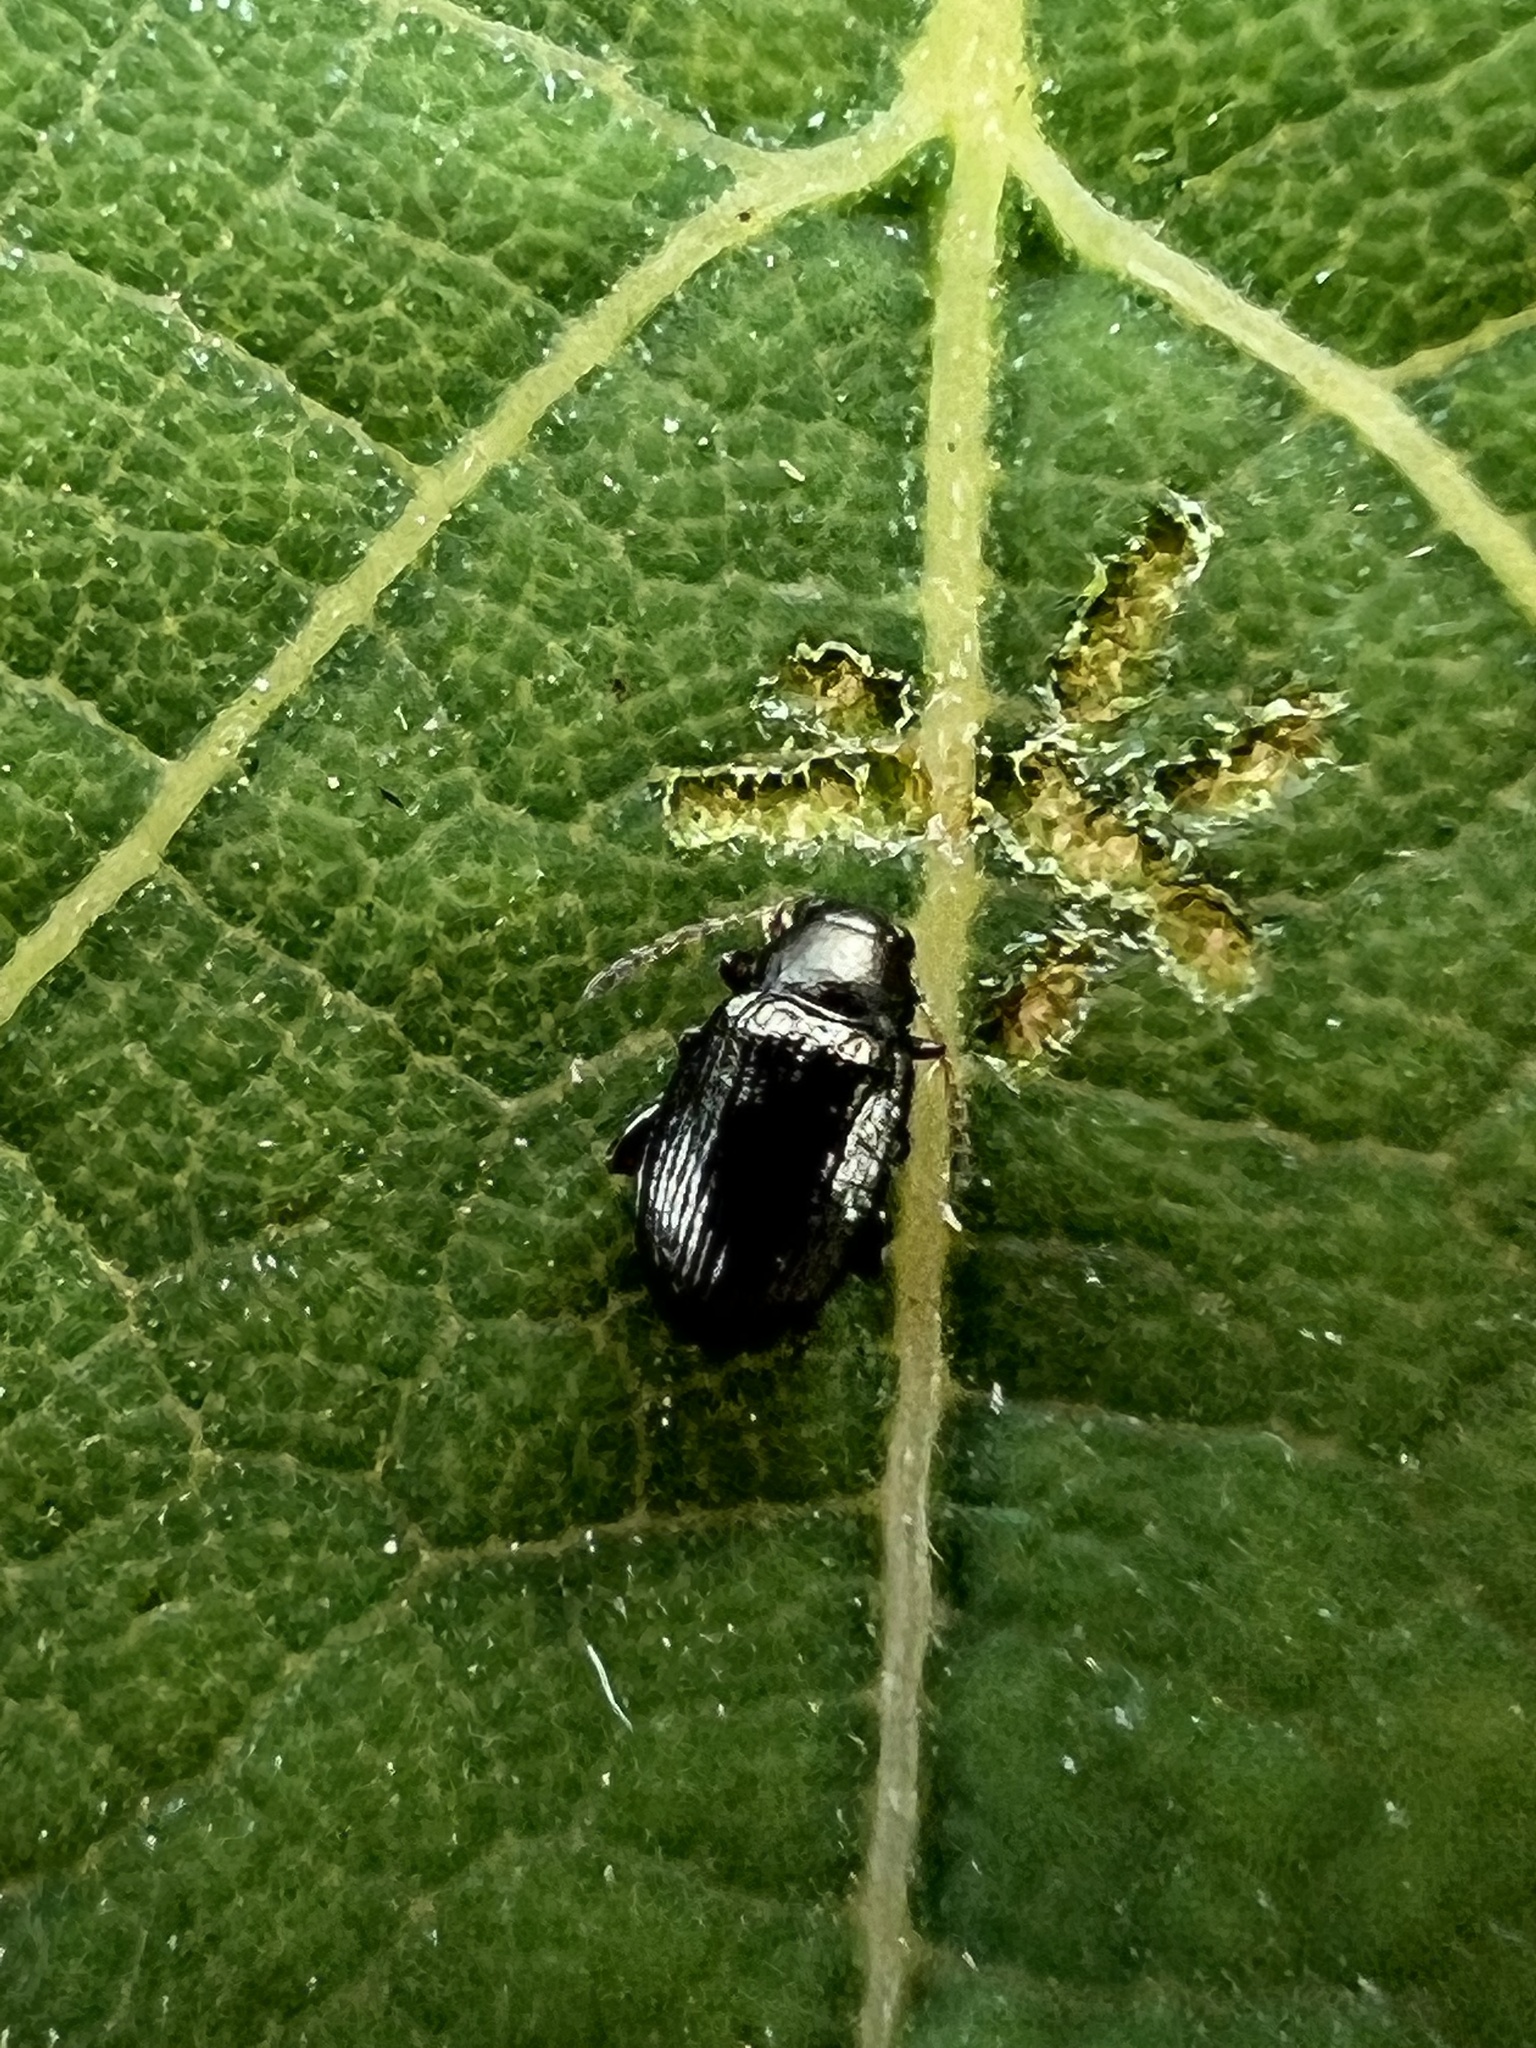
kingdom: Animalia
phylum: Arthropoda
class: Insecta
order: Coleoptera
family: Chrysomelidae
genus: Chaetocnema
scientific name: Chaetocnema quadricollis
